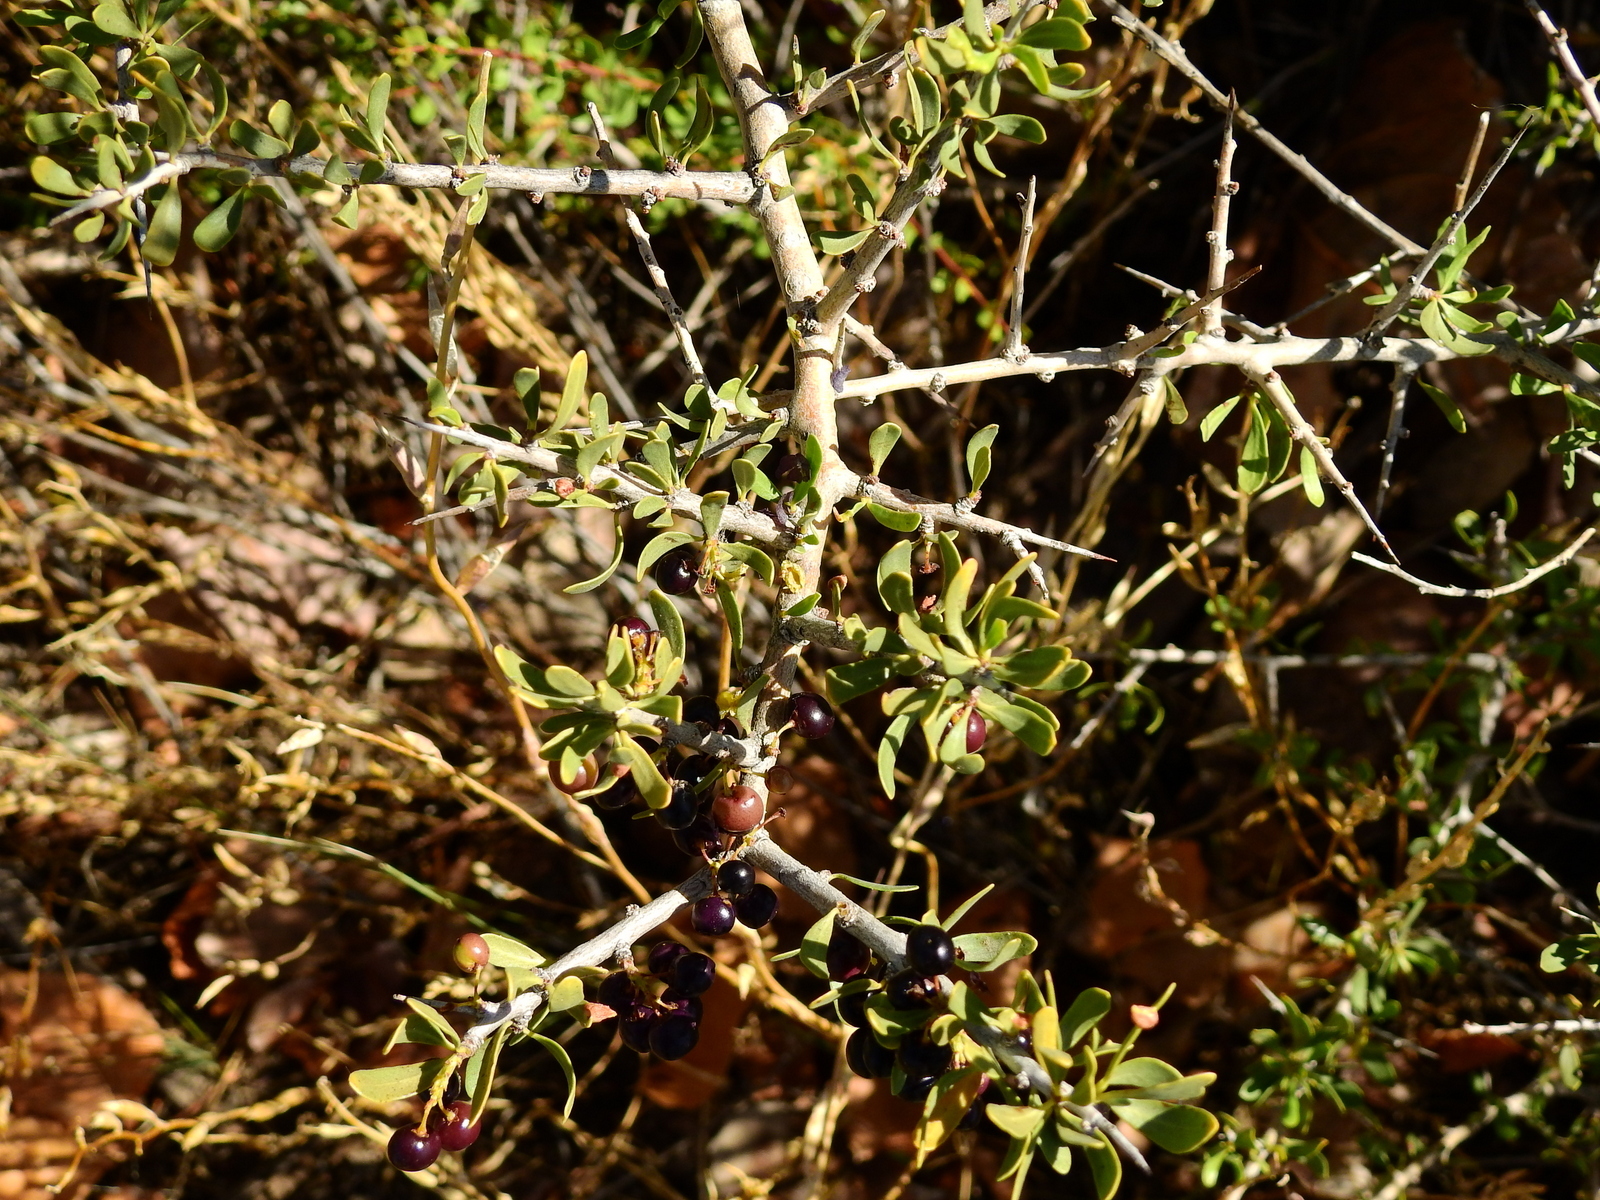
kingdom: Plantae
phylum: Tracheophyta
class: Magnoliopsida
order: Sapindales
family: Anacardiaceae
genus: Schinus
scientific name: Schinus johnstonii
